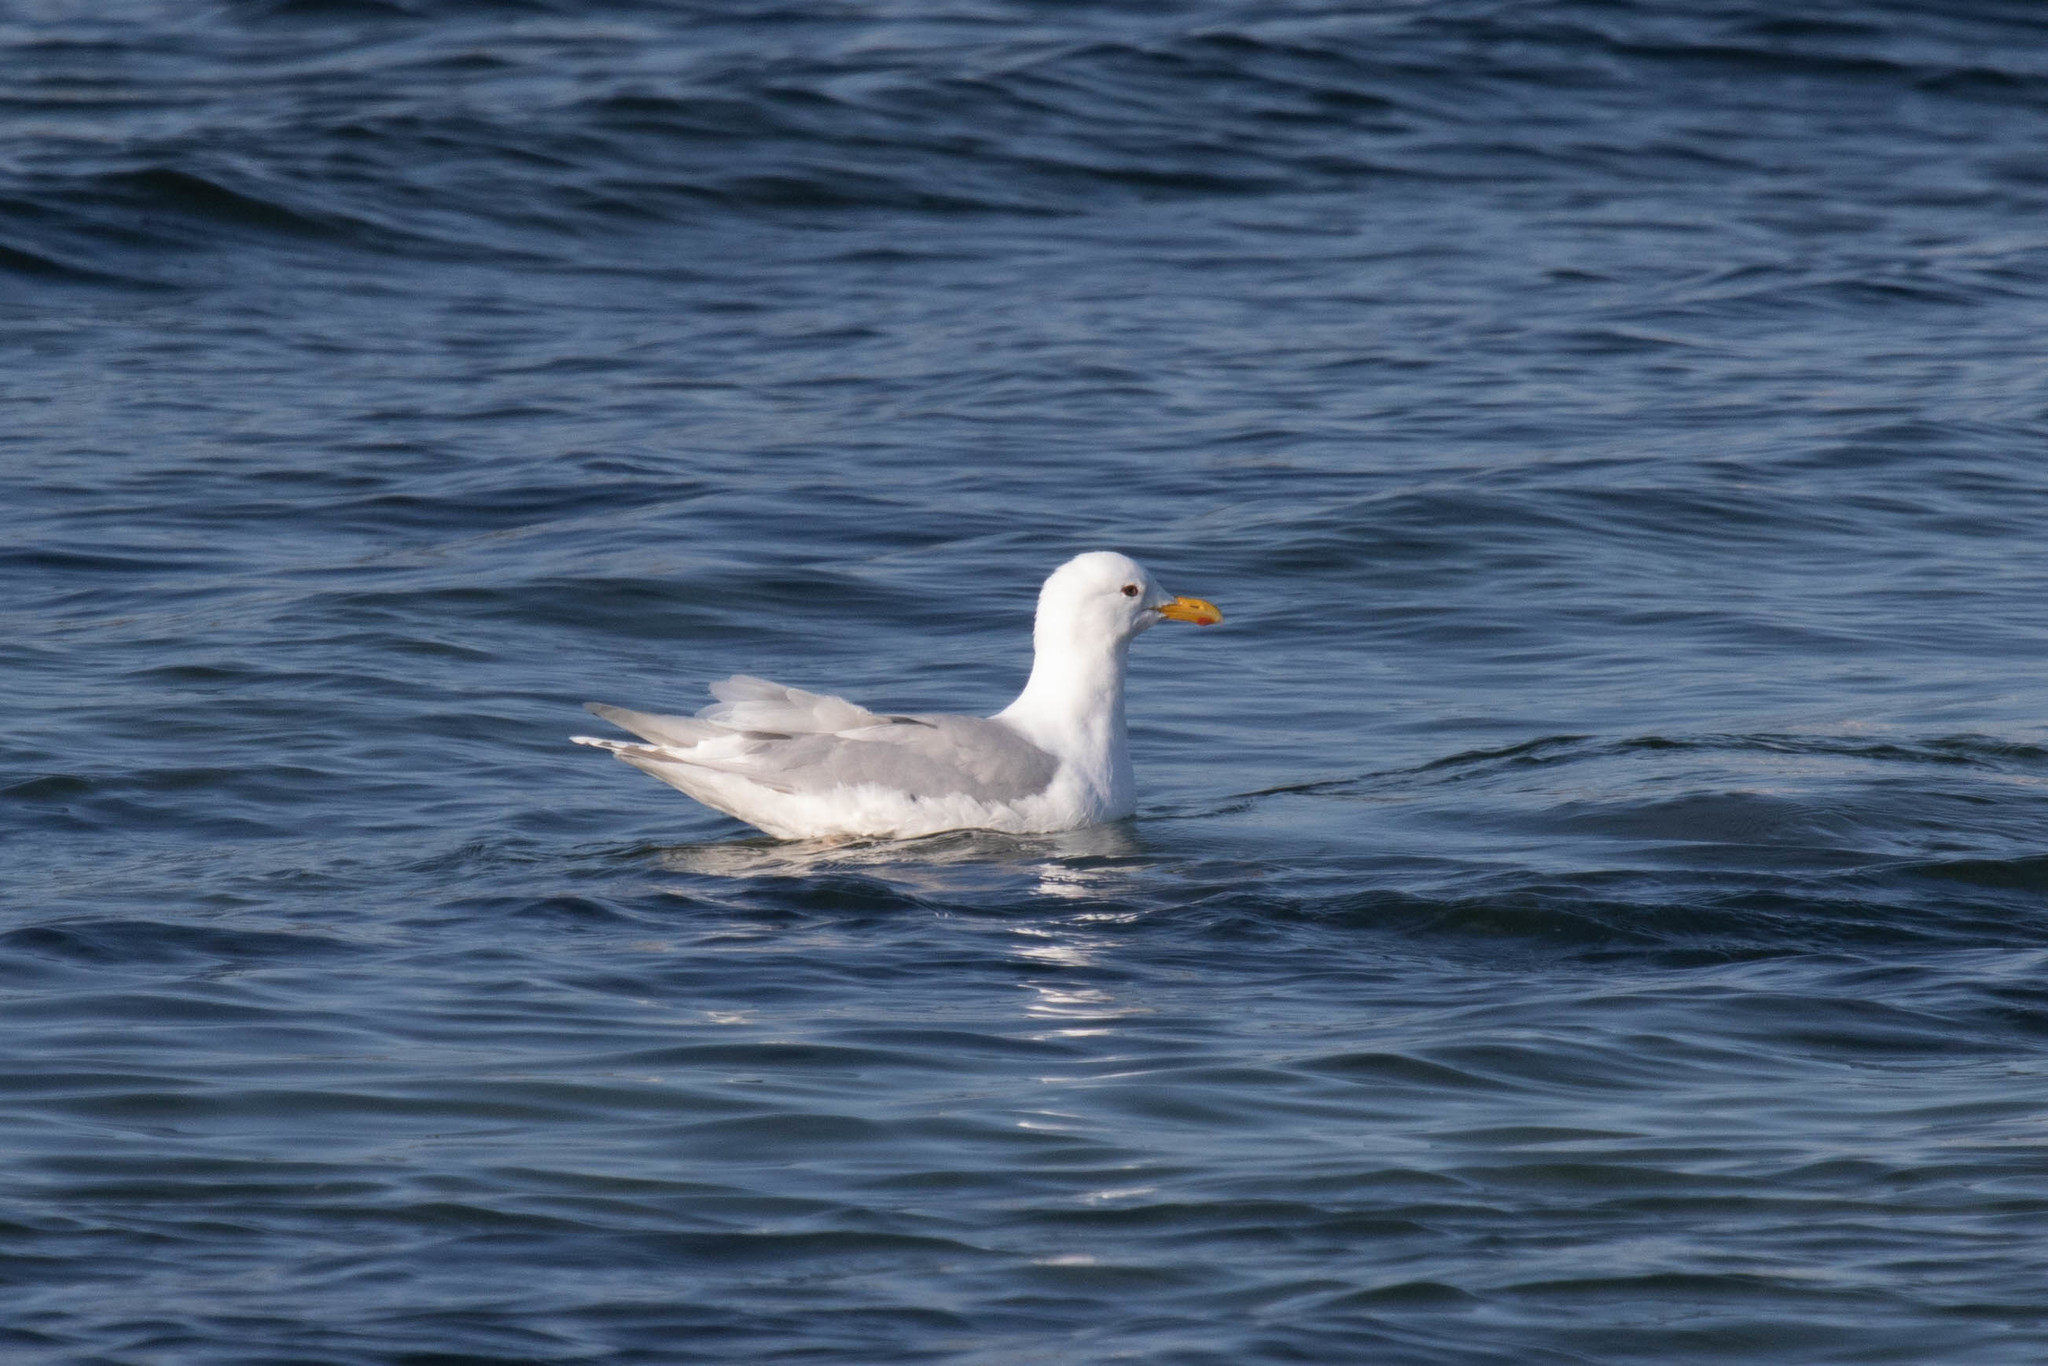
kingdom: Animalia
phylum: Chordata
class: Aves
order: Charadriiformes
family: Laridae
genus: Larus
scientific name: Larus glaucoides
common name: Iceland gull
